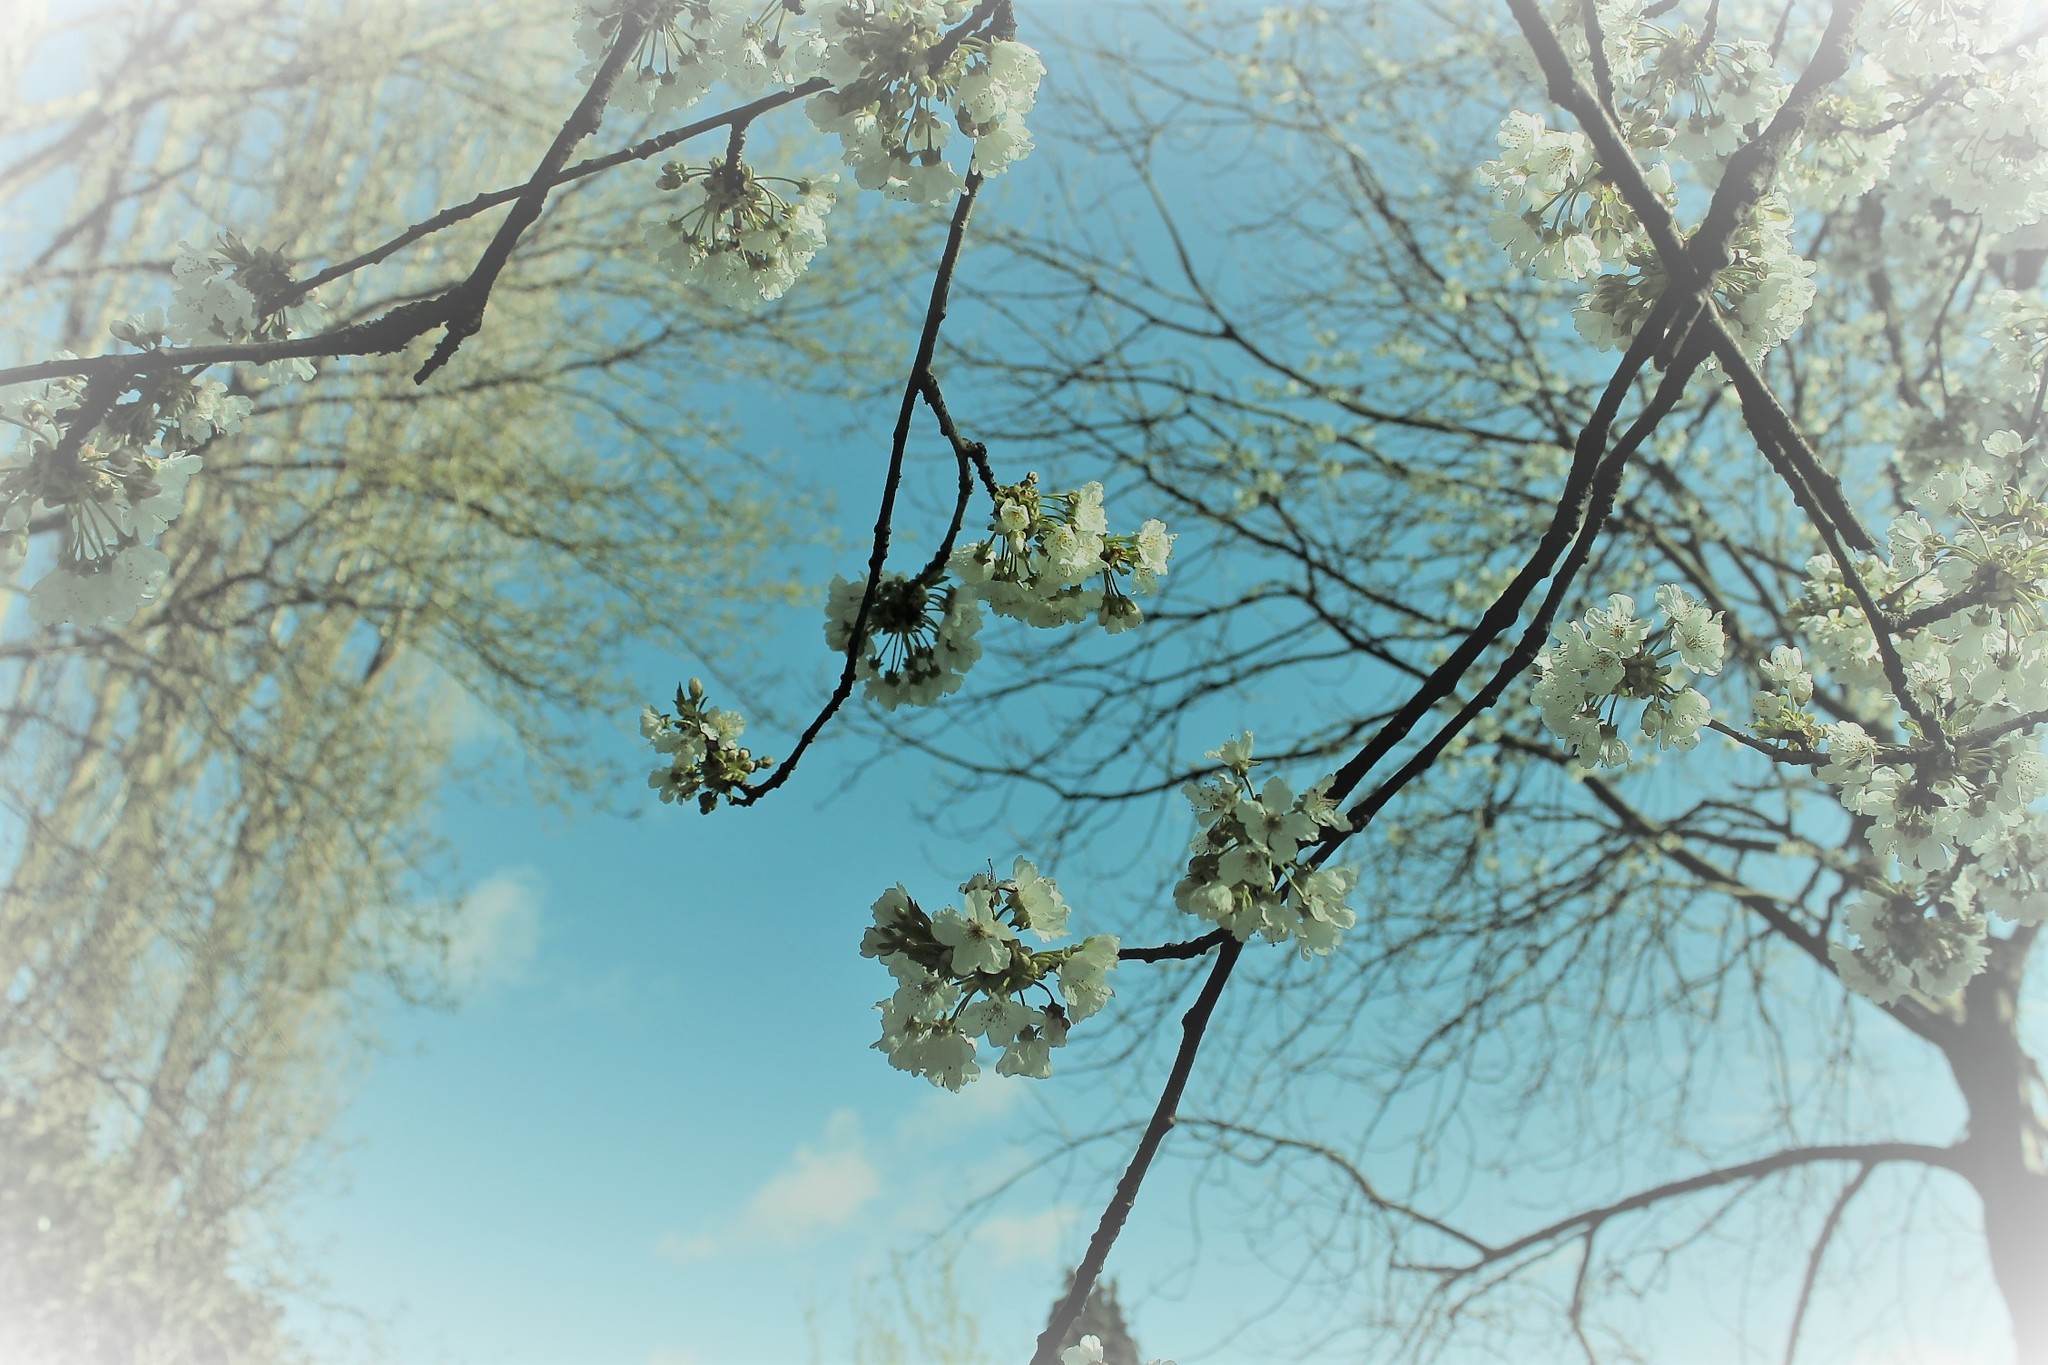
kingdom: Plantae
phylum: Tracheophyta
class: Magnoliopsida
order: Rosales
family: Rosaceae
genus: Prunus
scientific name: Prunus avium
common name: Sweet cherry
